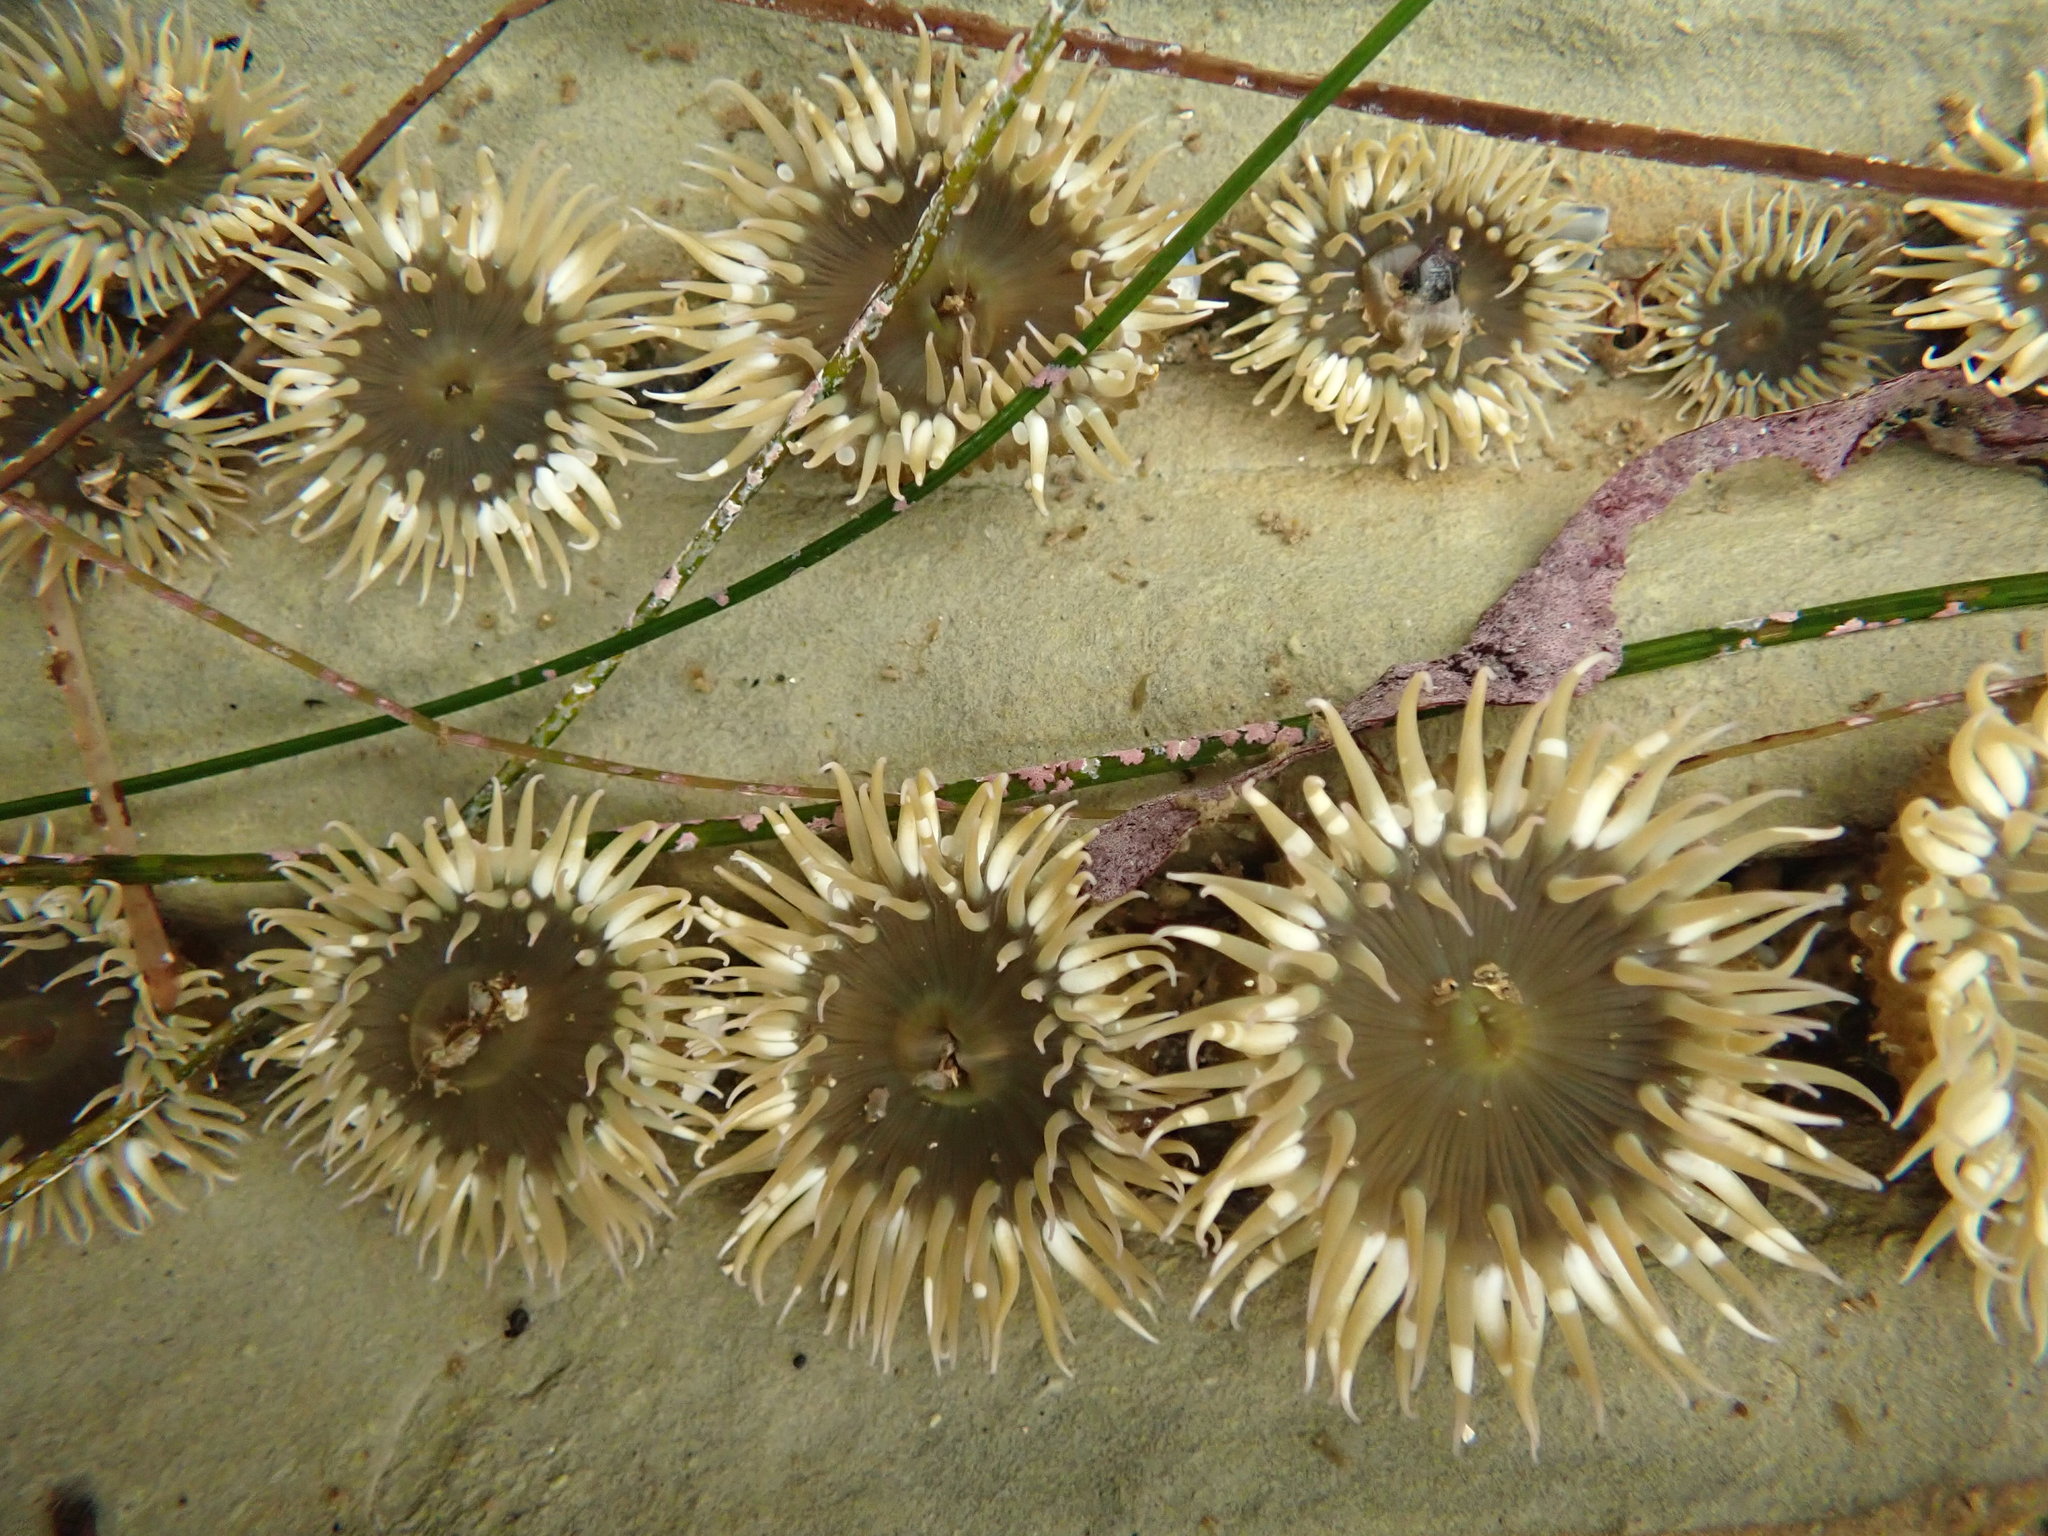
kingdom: Animalia
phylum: Cnidaria
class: Anthozoa
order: Actiniaria
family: Actiniidae
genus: Anthopleura
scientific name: Anthopleura elegantissima
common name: Clonal anemone
